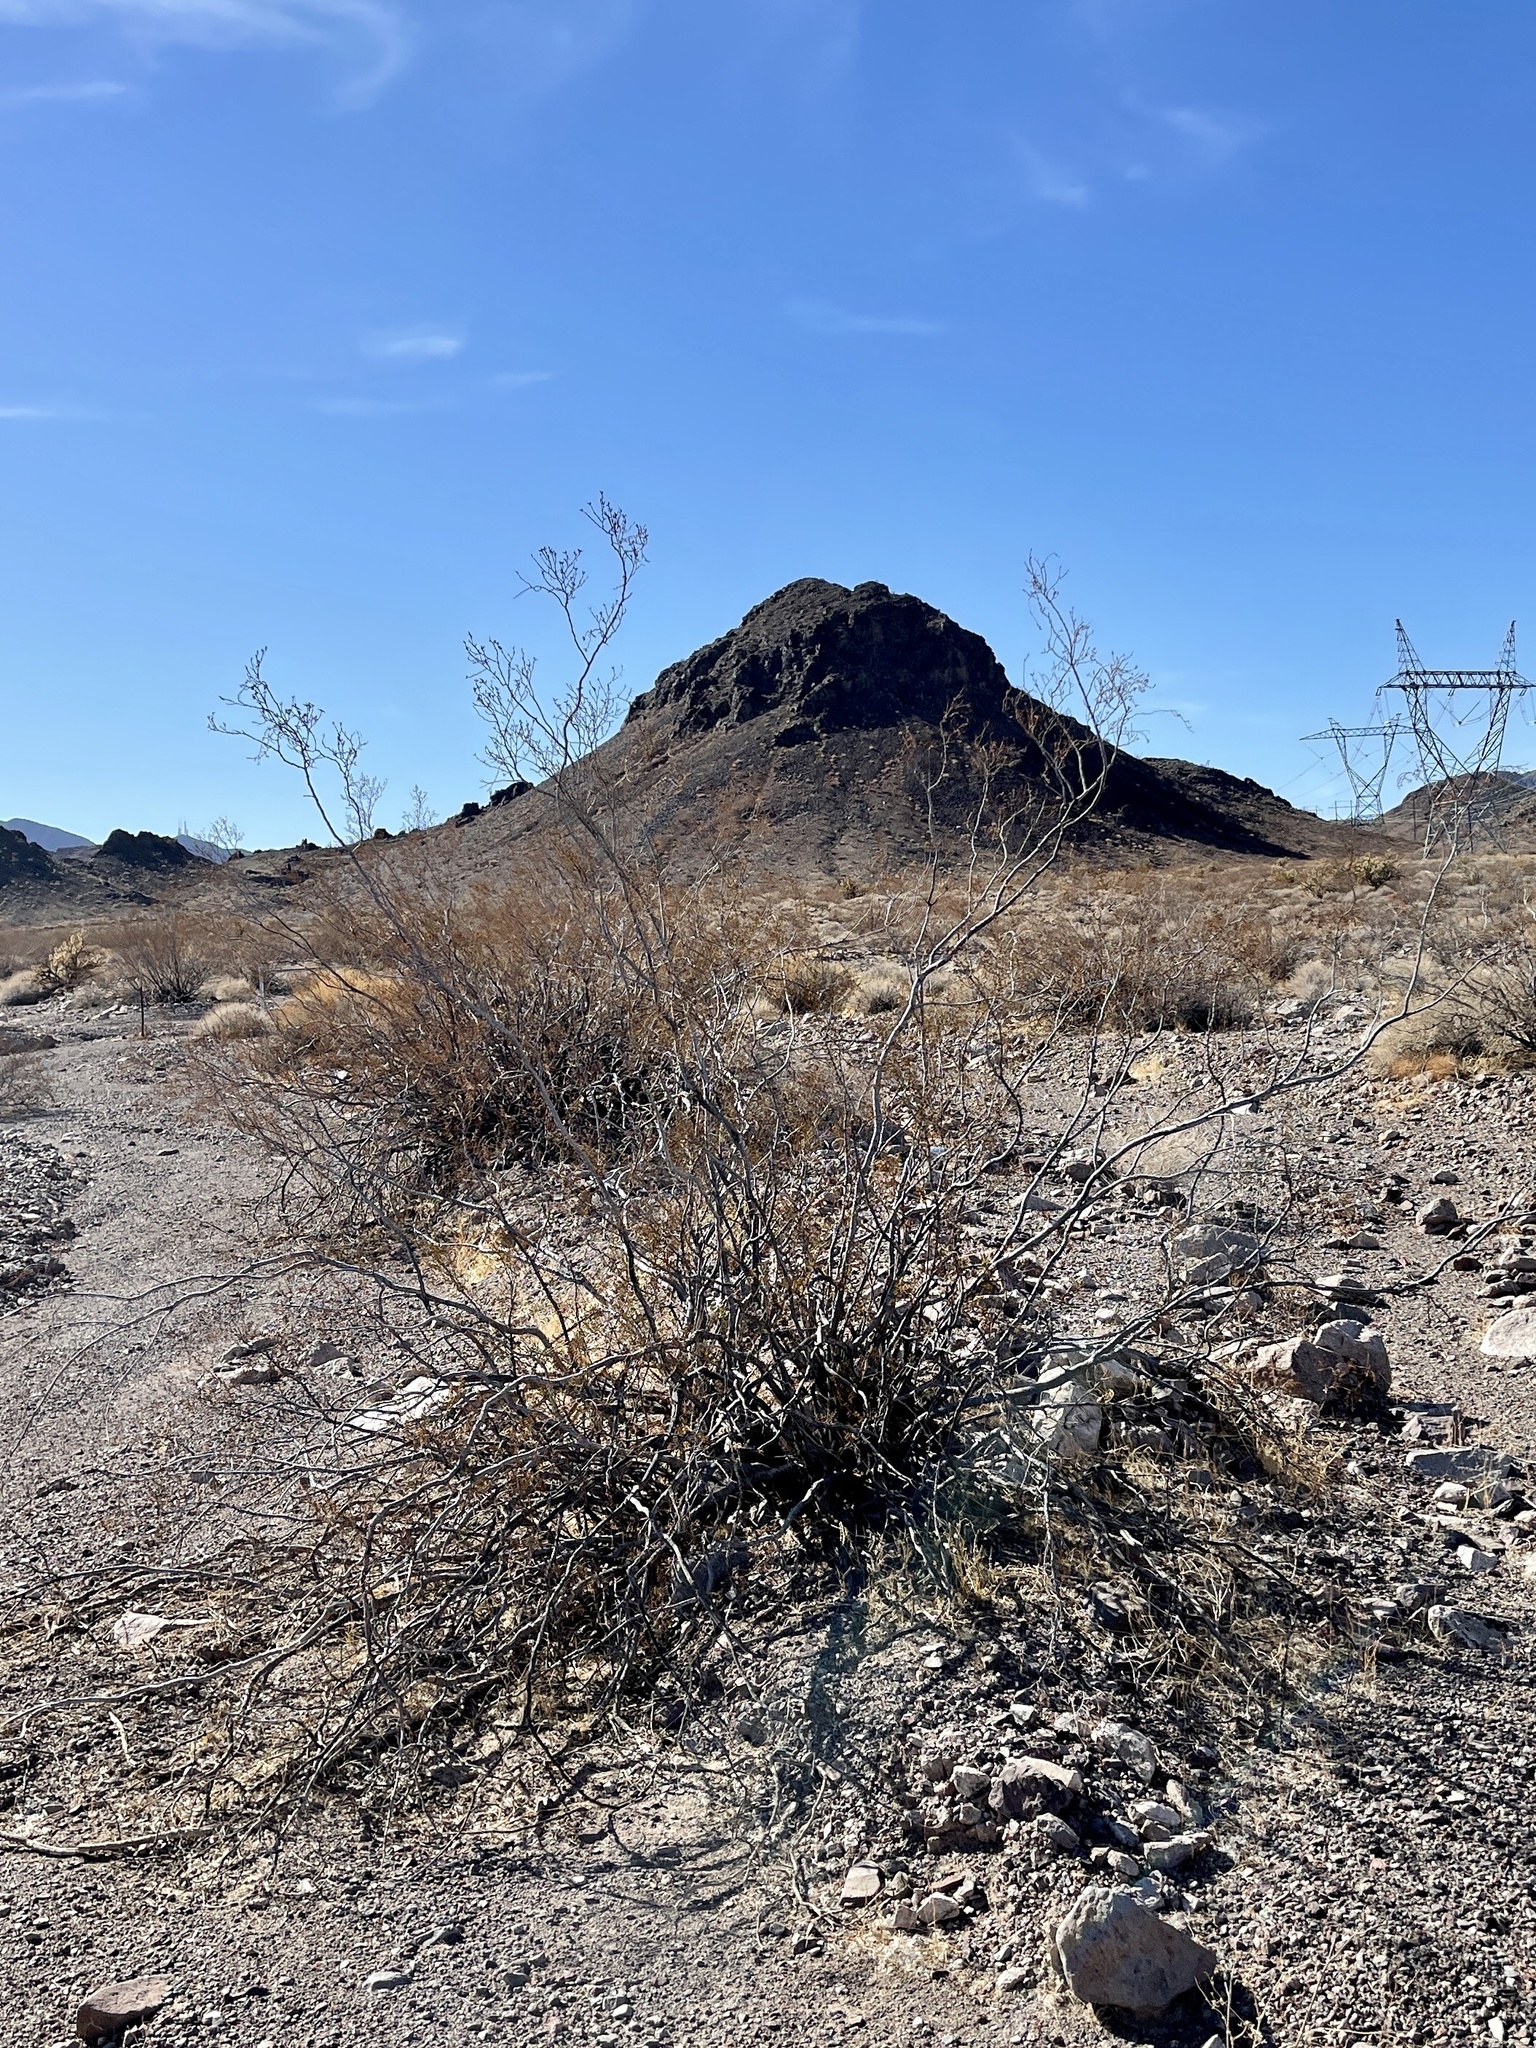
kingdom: Plantae
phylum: Tracheophyta
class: Magnoliopsida
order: Zygophyllales
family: Zygophyllaceae
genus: Larrea
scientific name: Larrea tridentata
